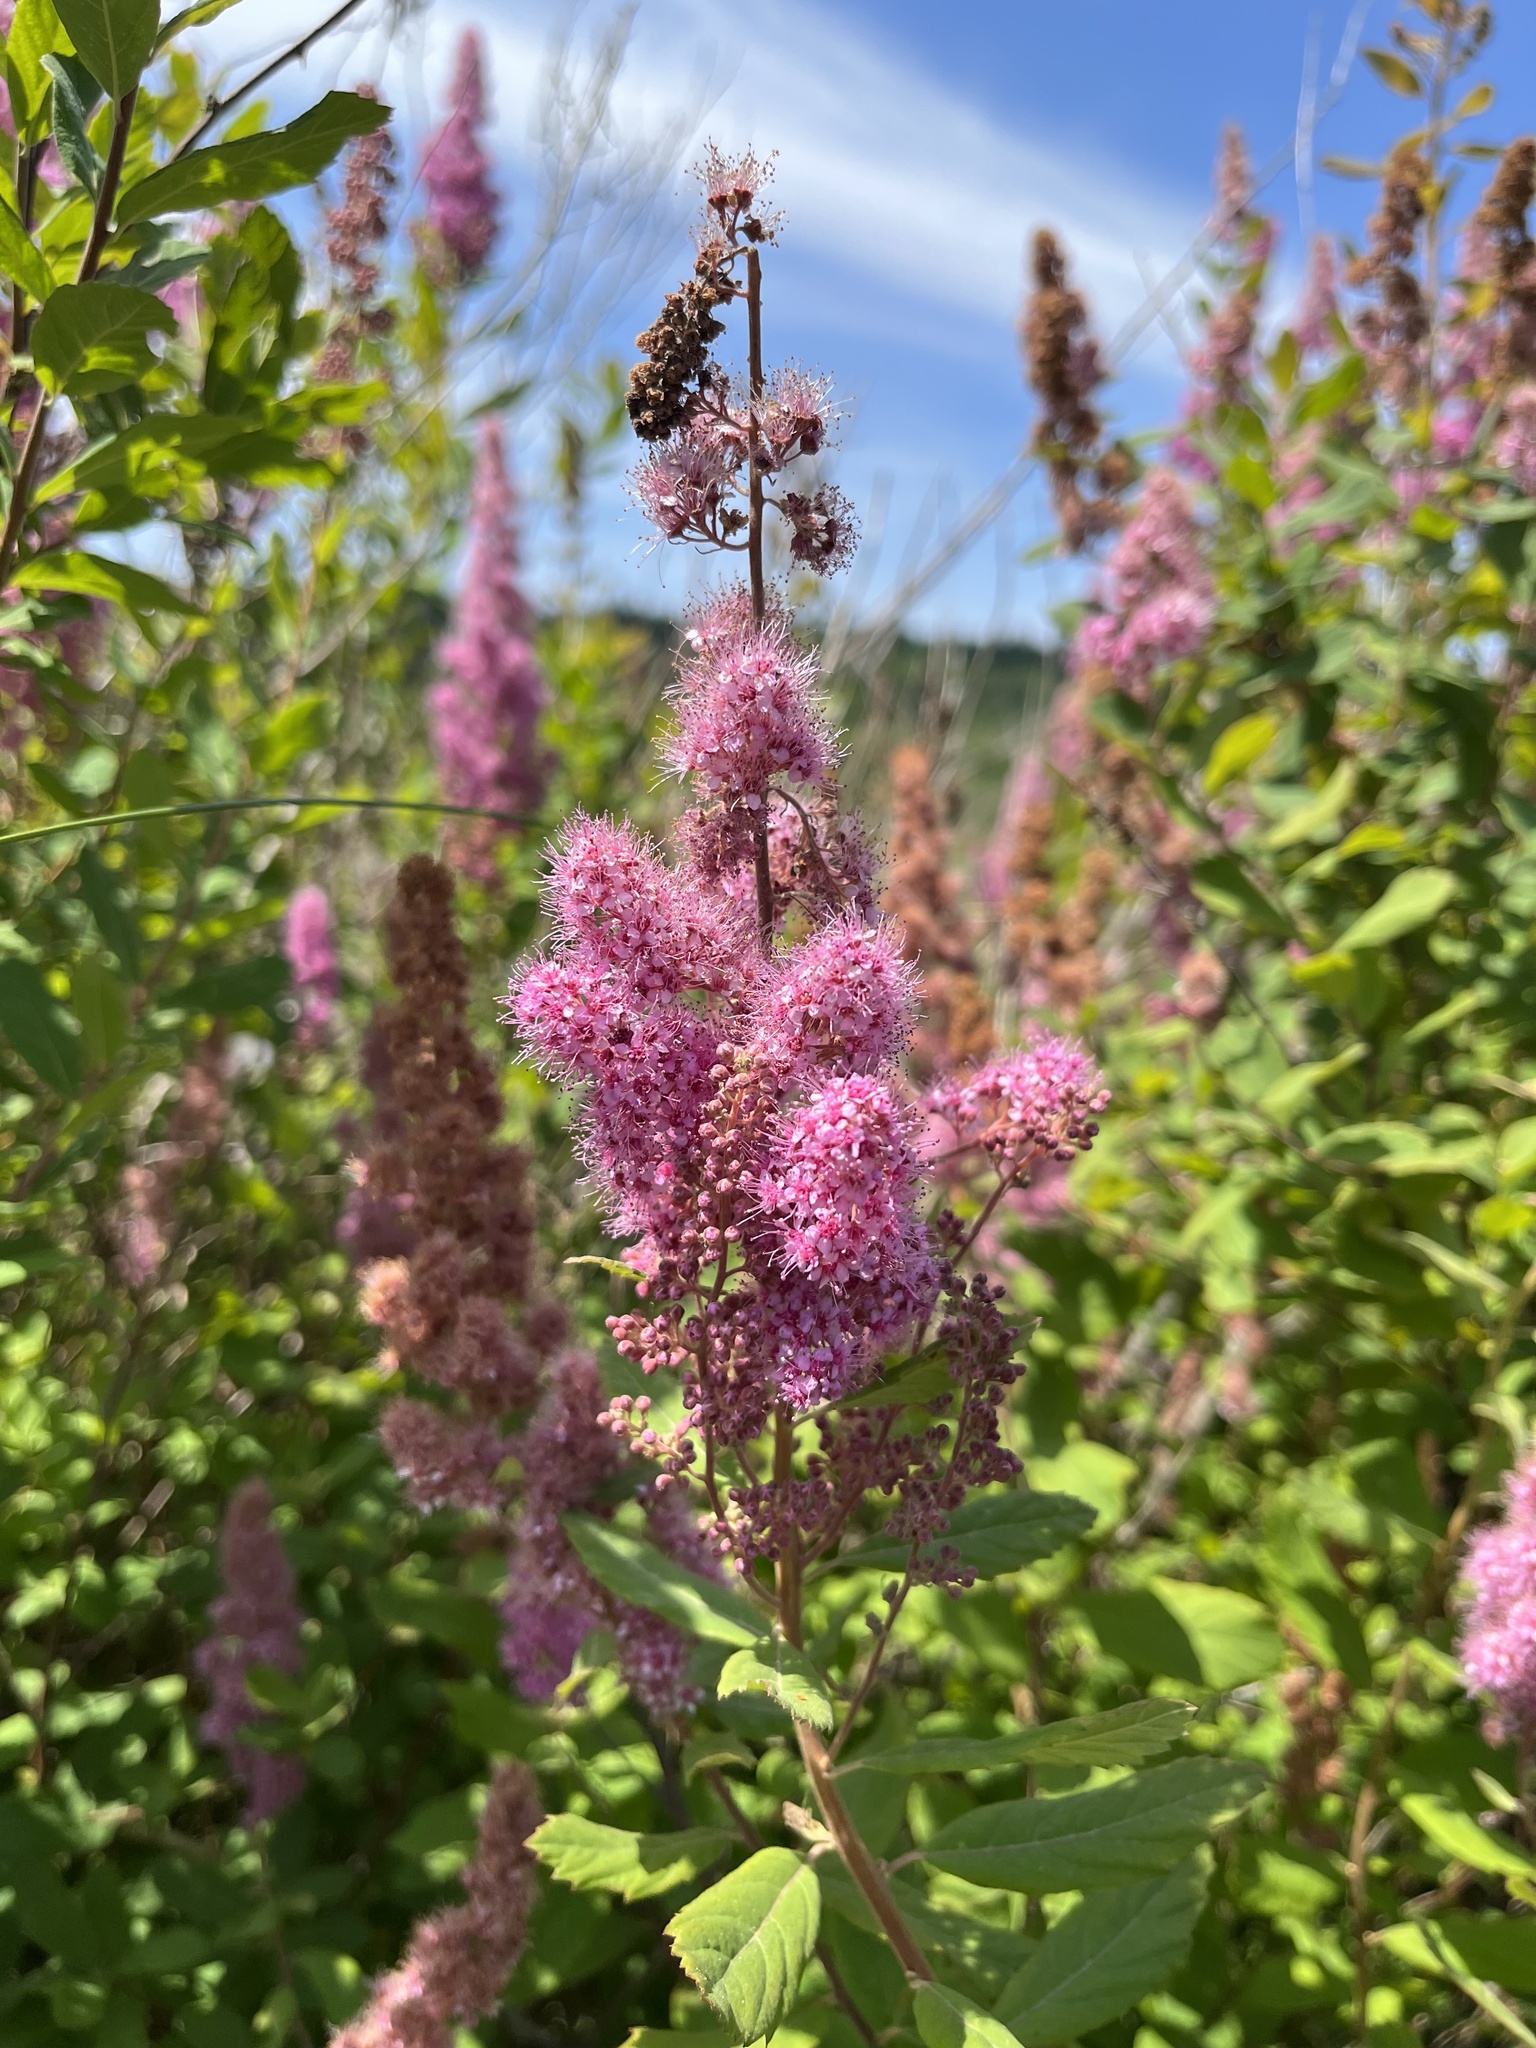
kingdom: Plantae
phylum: Tracheophyta
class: Magnoliopsida
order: Rosales
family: Rosaceae
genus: Spiraea
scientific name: Spiraea douglasii
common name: Steeplebush
